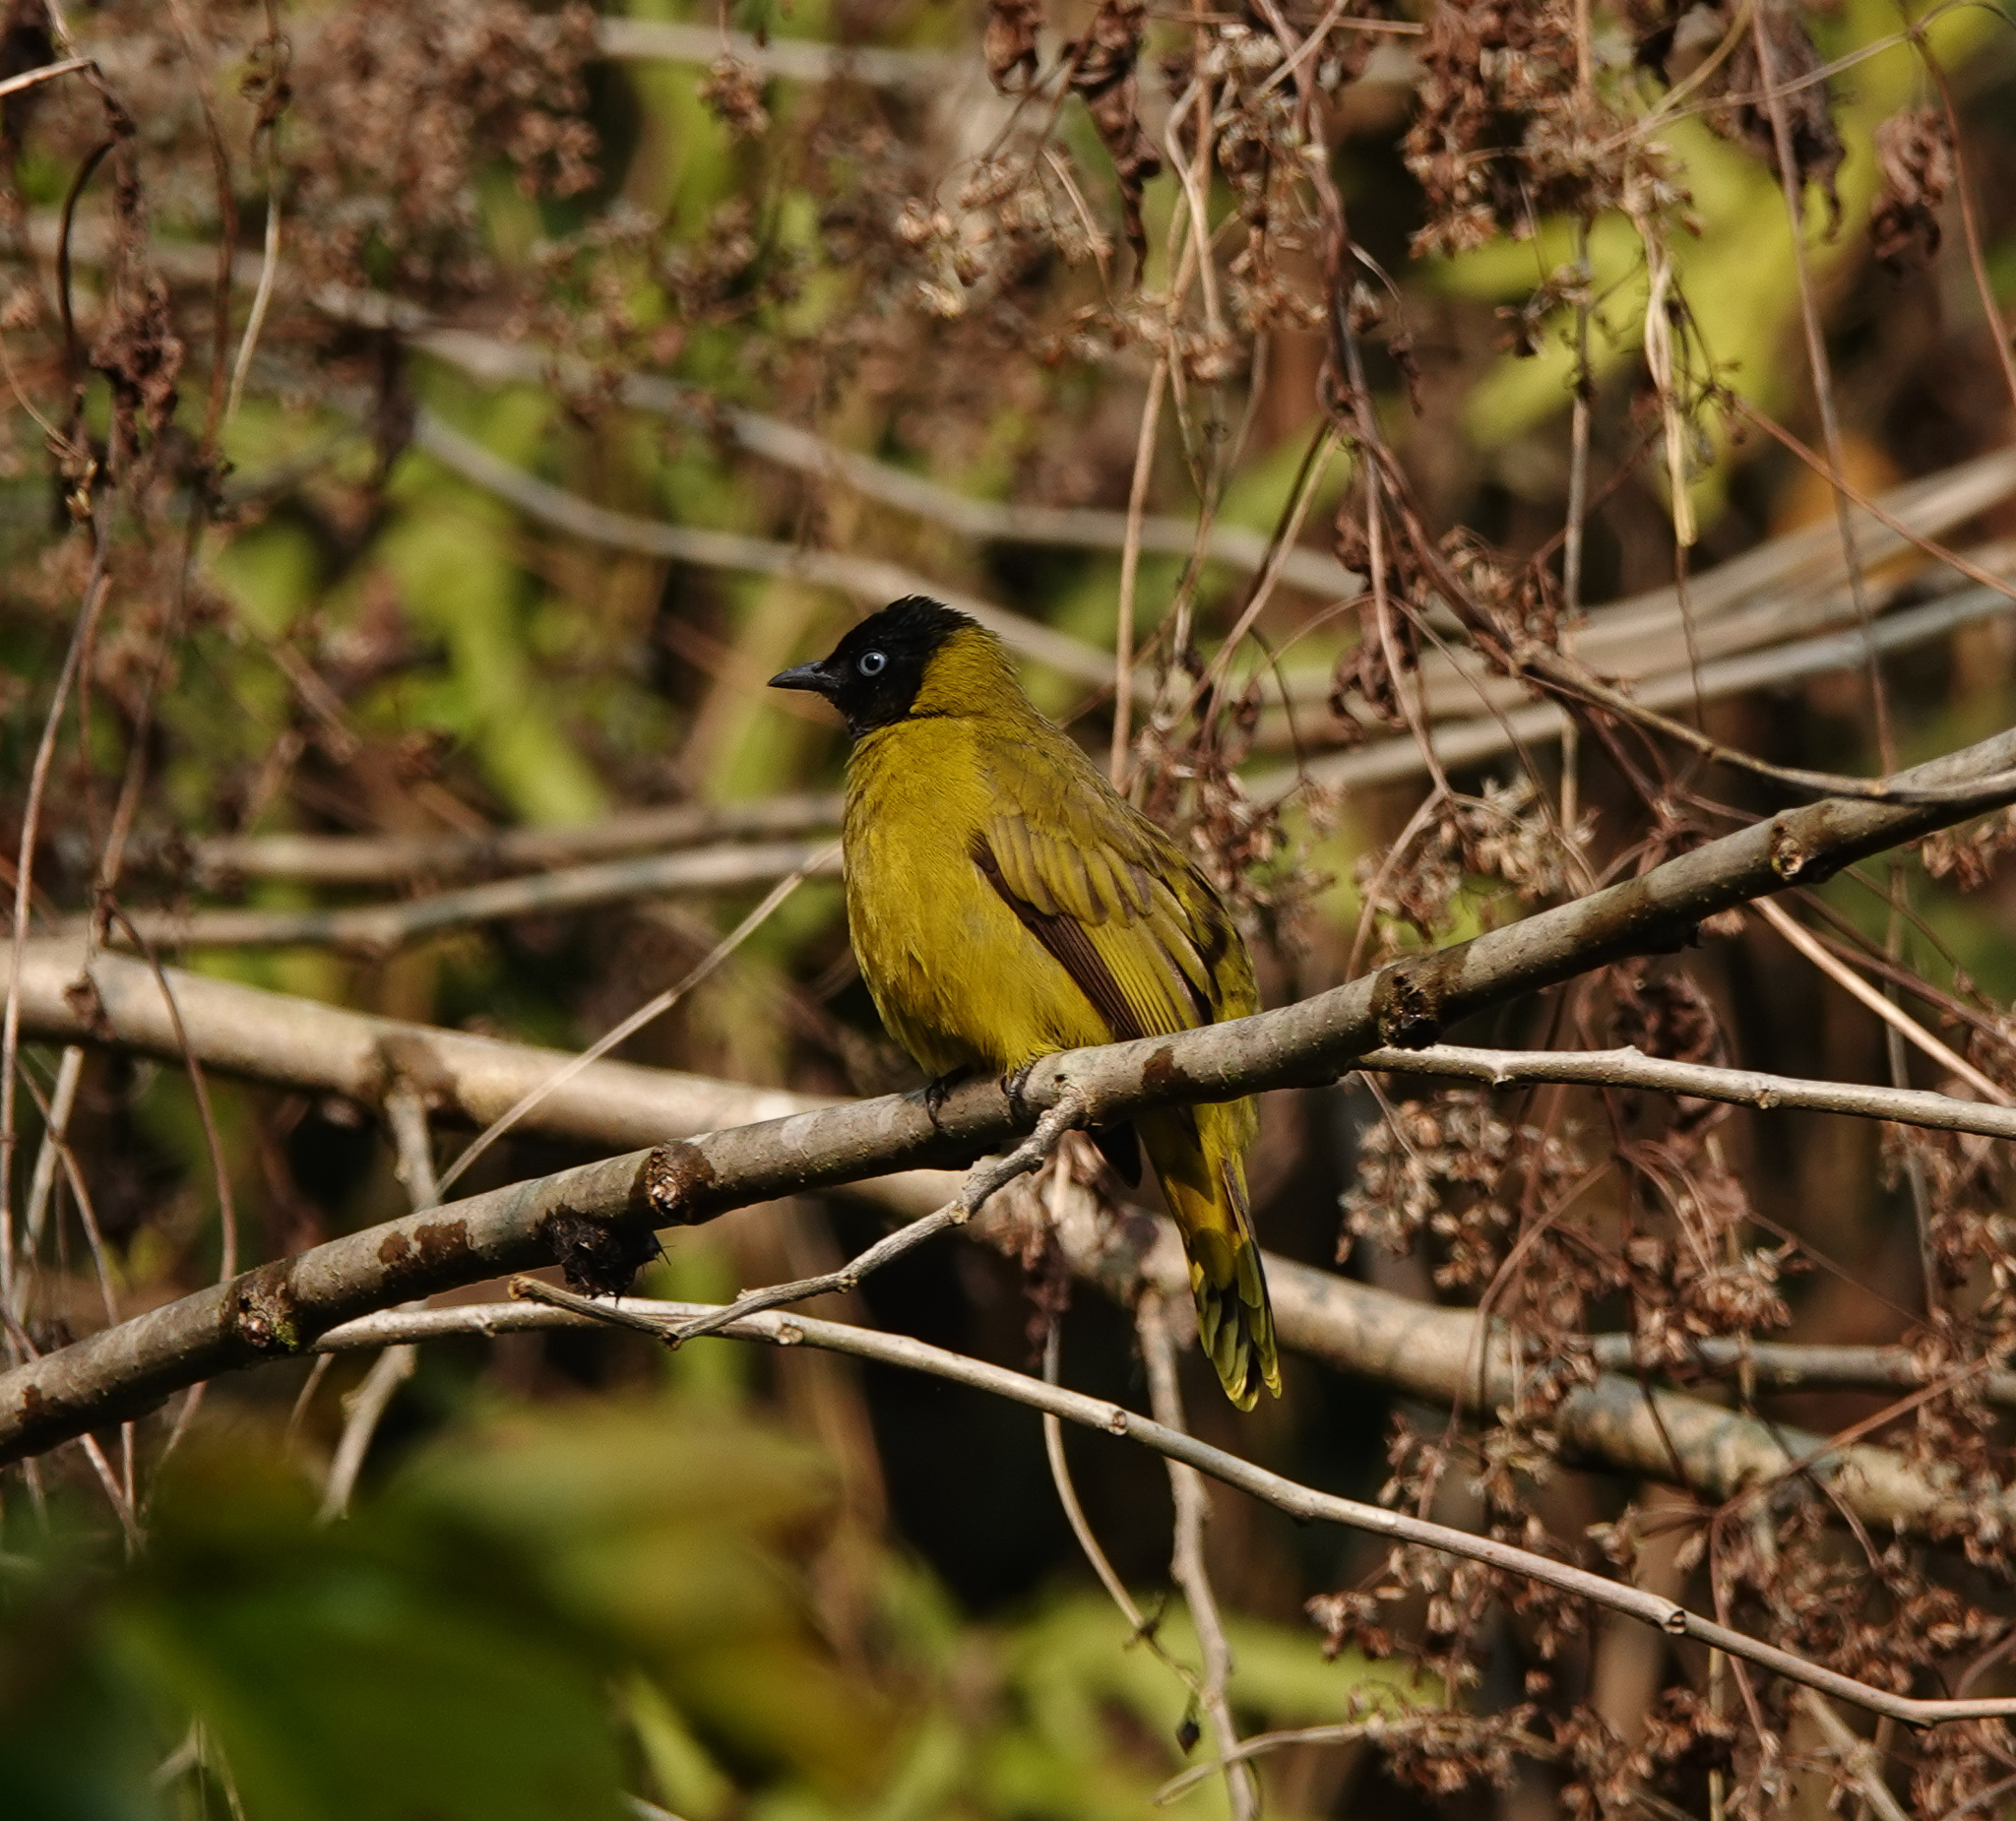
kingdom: Animalia
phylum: Chordata
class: Aves
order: Passeriformes
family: Pycnonotidae
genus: Microtarsus
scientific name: Microtarsus
